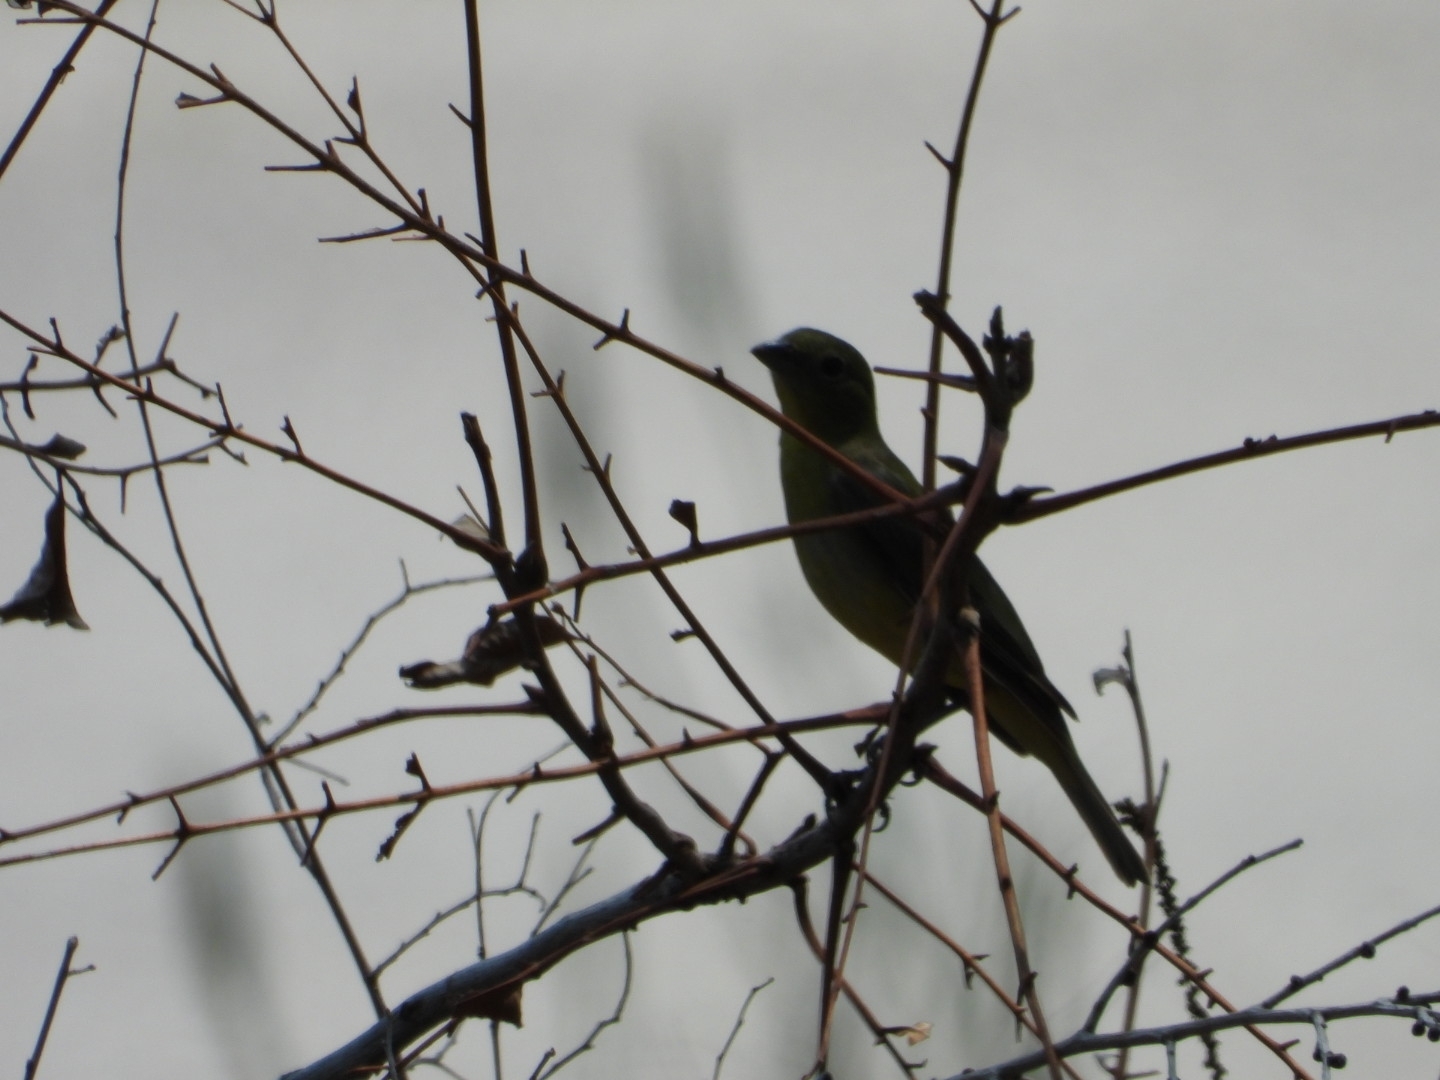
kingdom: Animalia
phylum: Chordata
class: Aves
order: Passeriformes
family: Cardinalidae
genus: Passerina
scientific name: Passerina ciris
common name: Painted bunting
